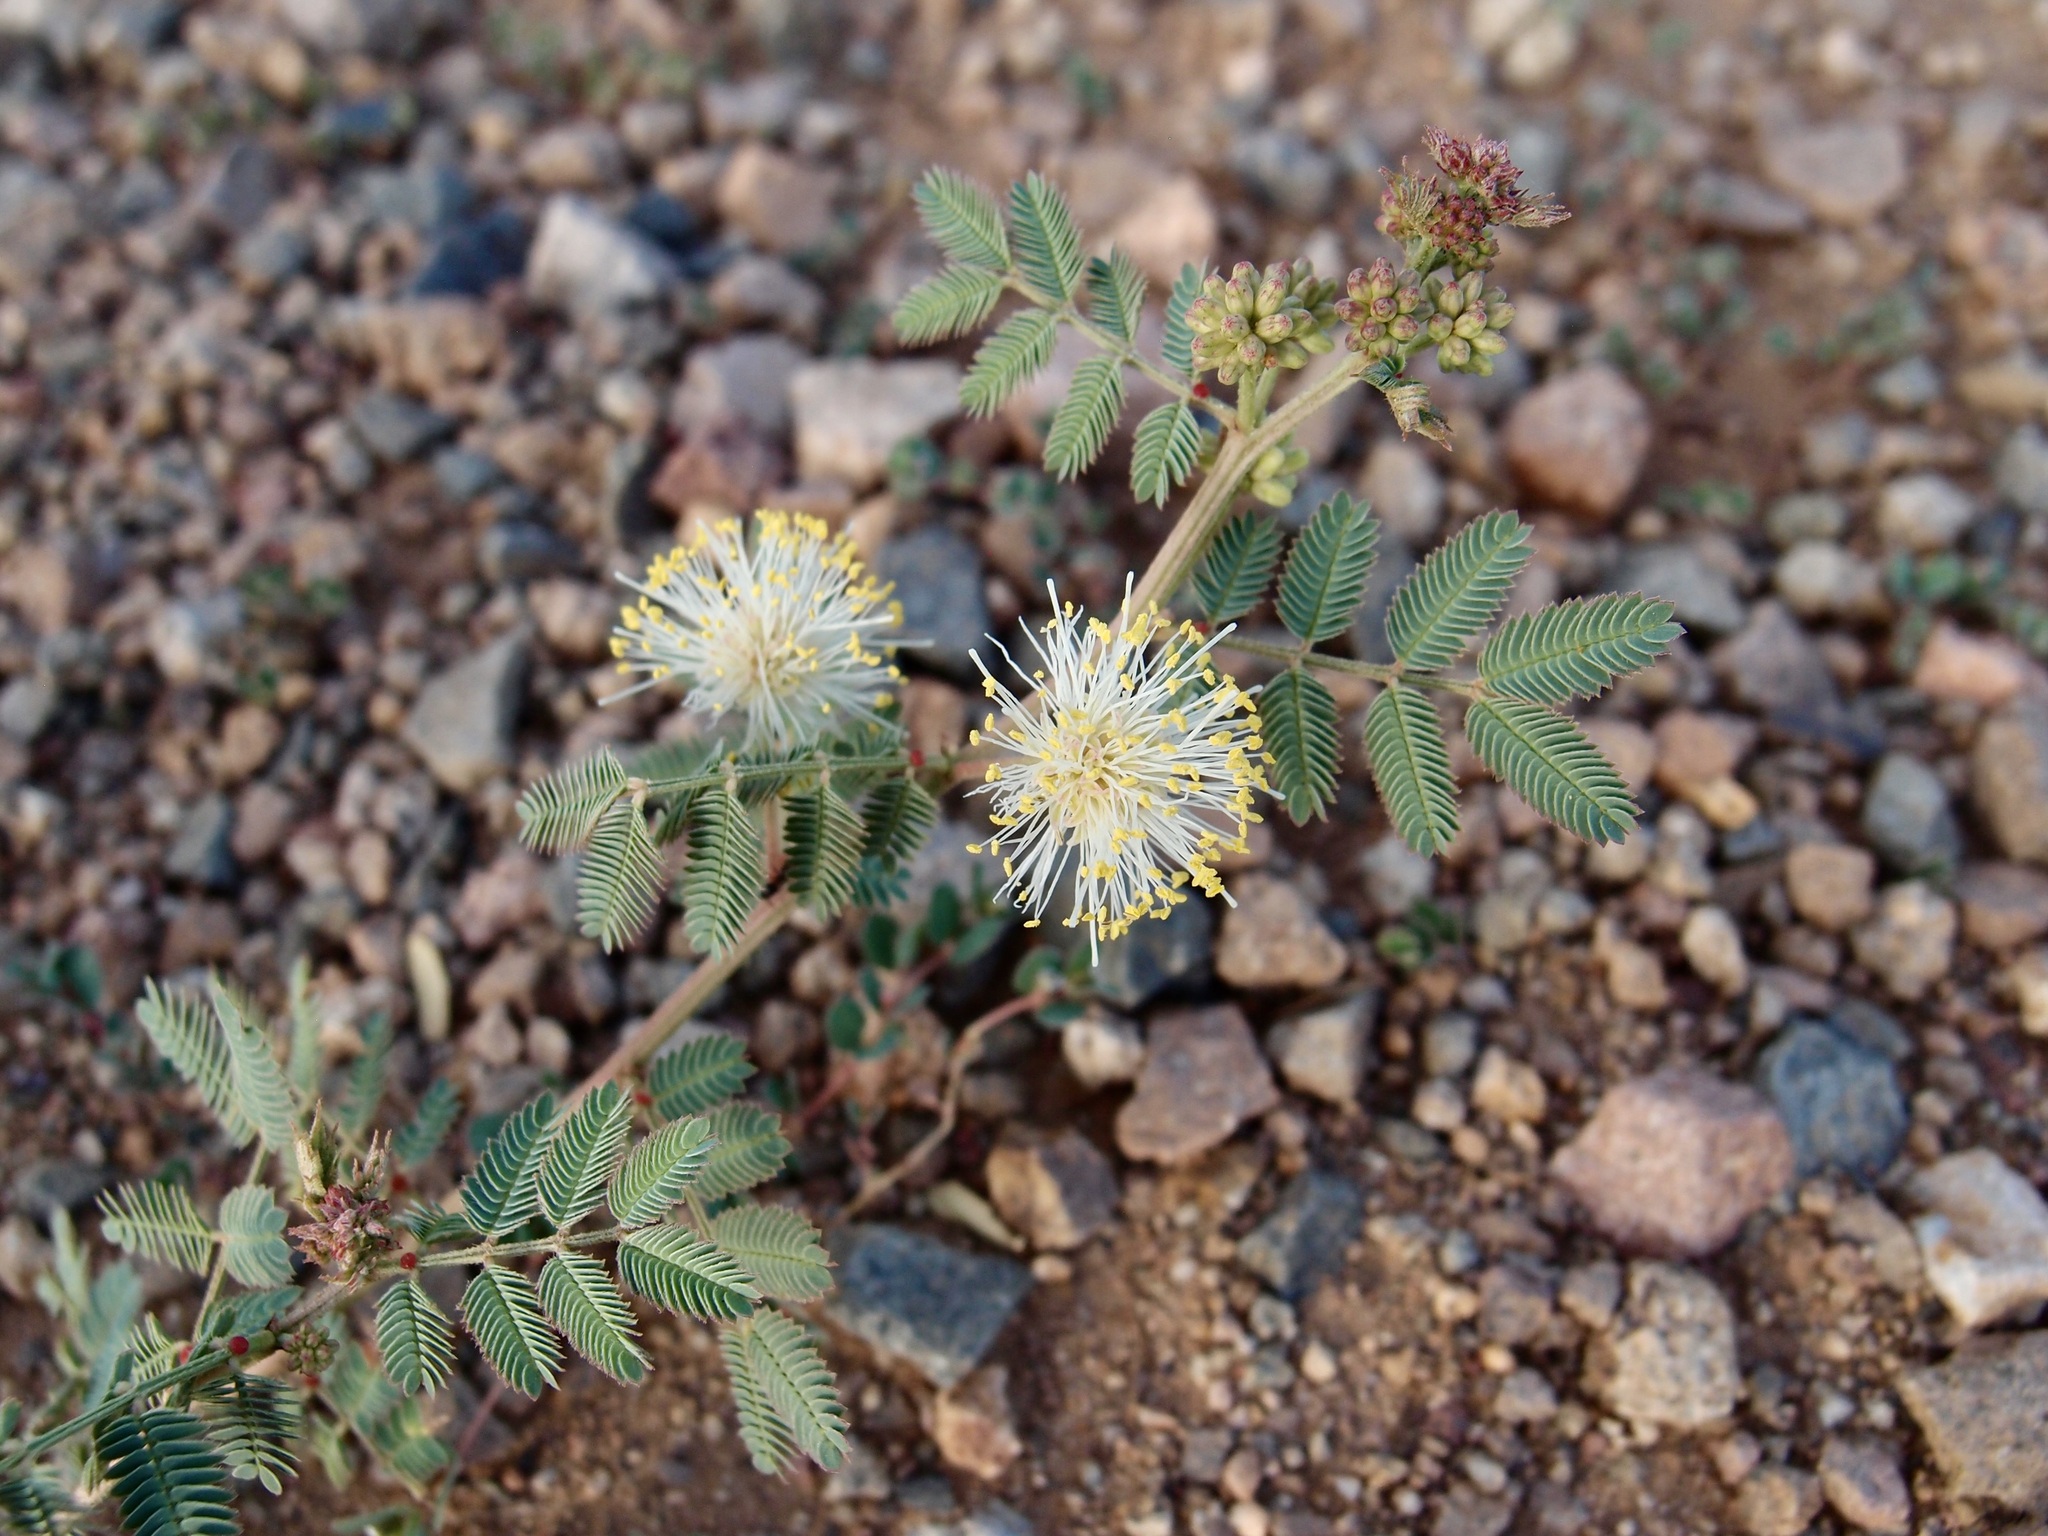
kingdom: Plantae
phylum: Tracheophyta
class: Magnoliopsida
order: Fabales
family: Fabaceae
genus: Desmanthus
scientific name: Desmanthus cooleyi
